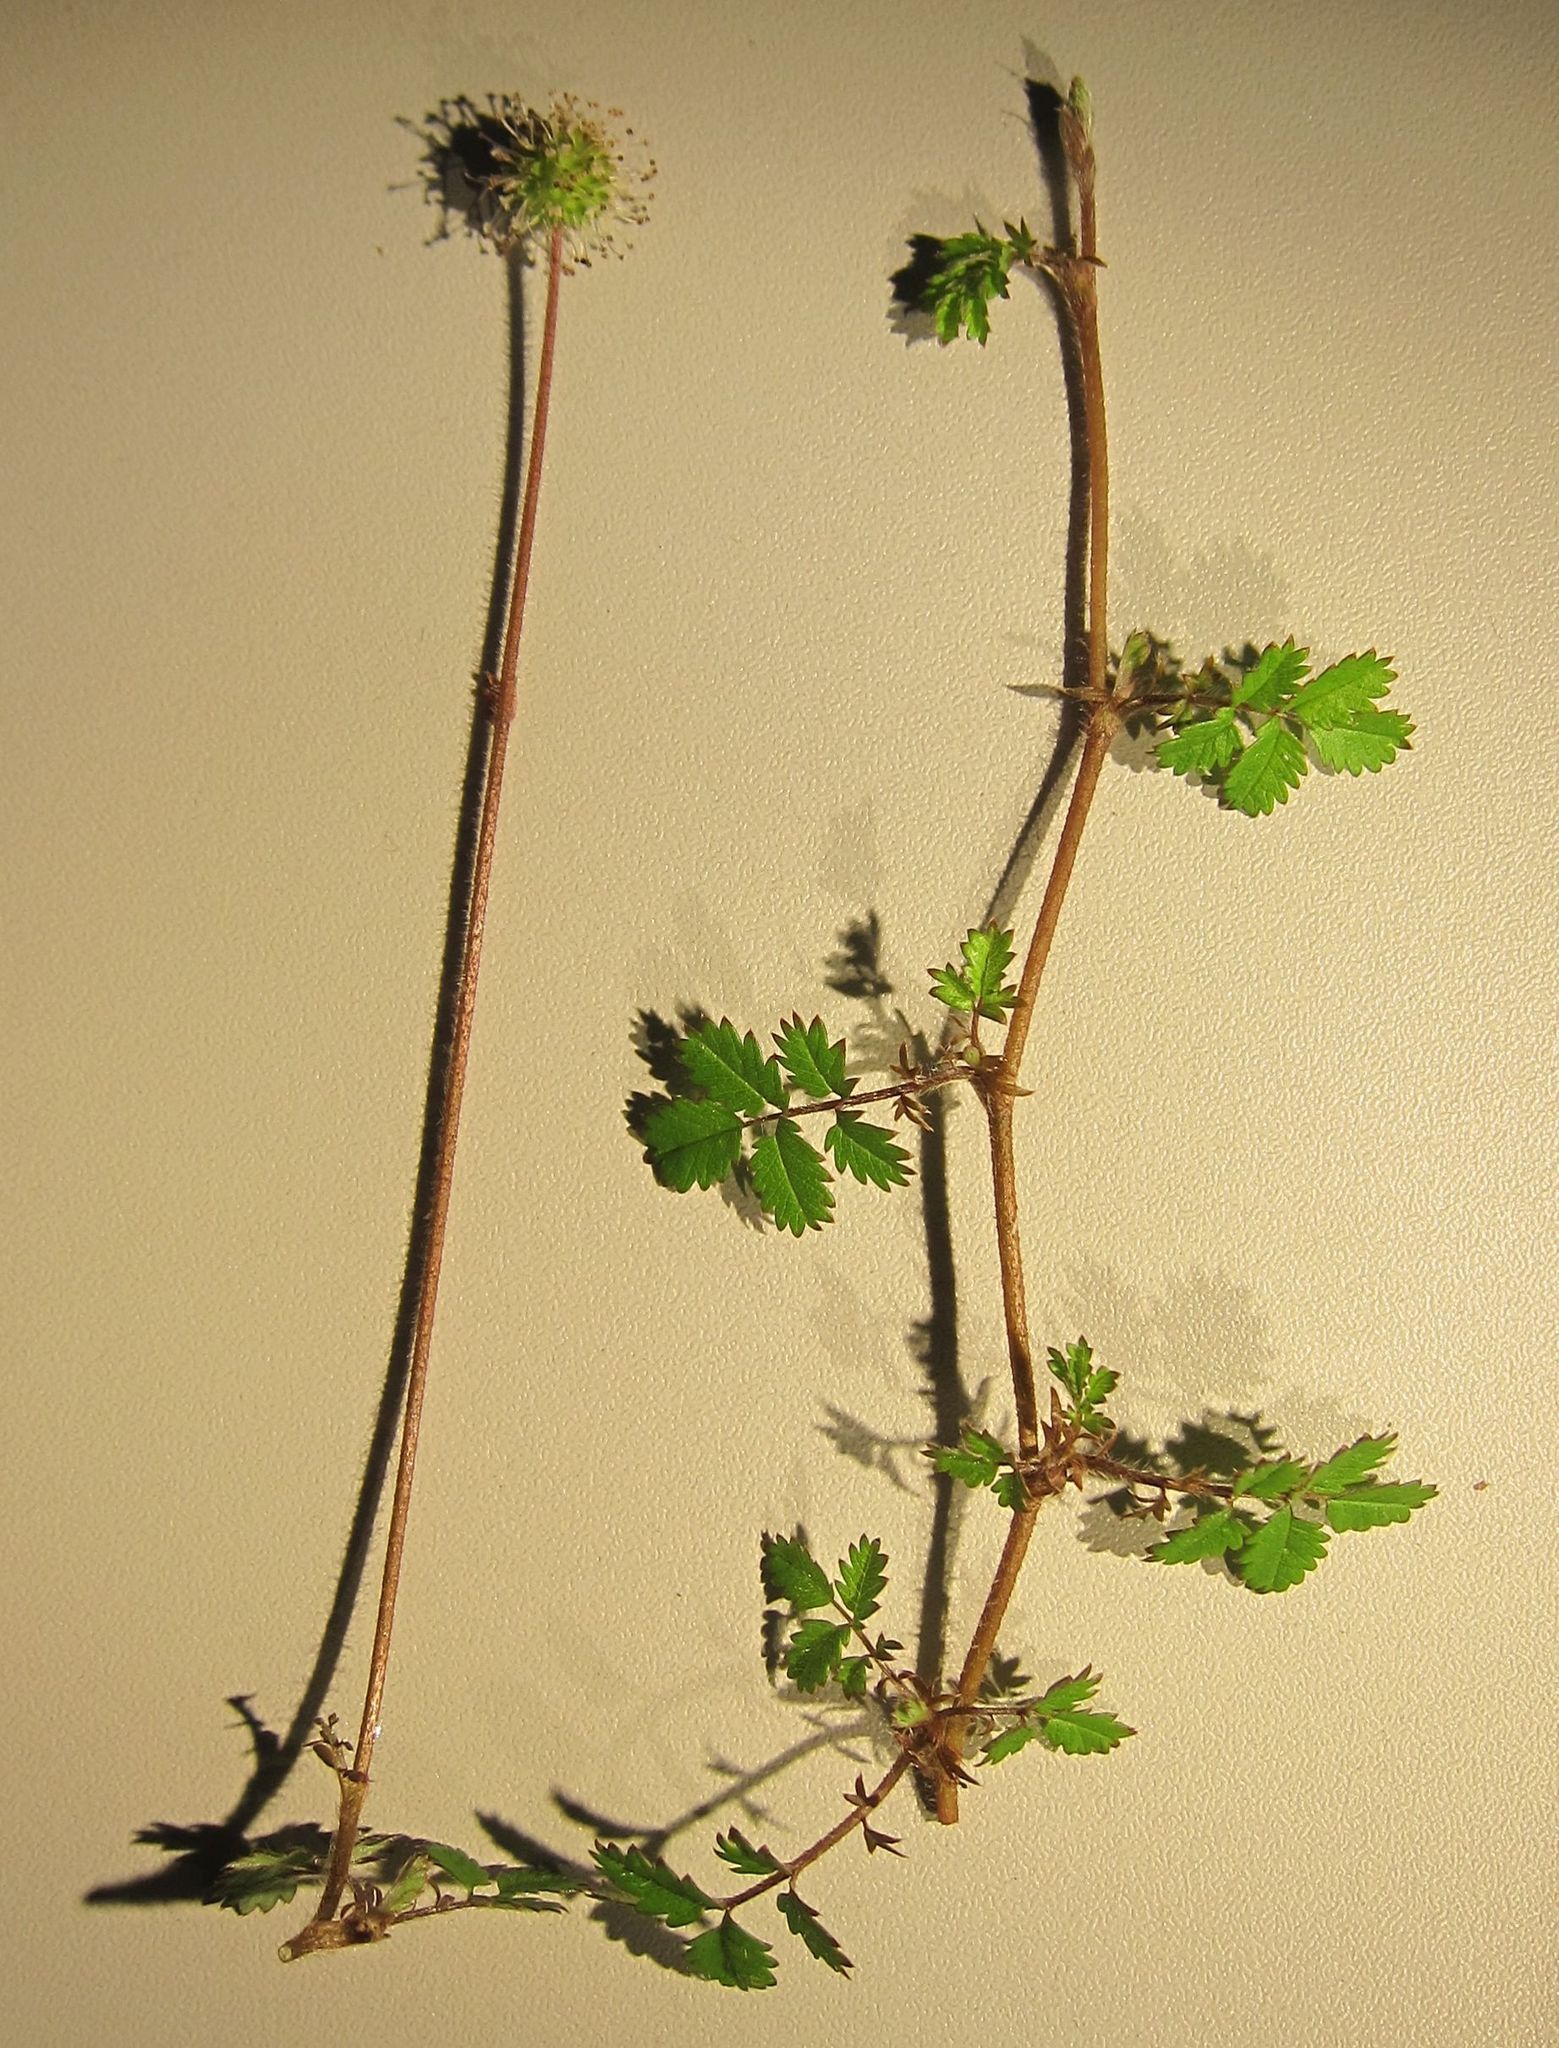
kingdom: Plantae
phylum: Tracheophyta
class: Magnoliopsida
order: Rosales
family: Rosaceae
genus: Acaena
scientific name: Acaena juvenca
